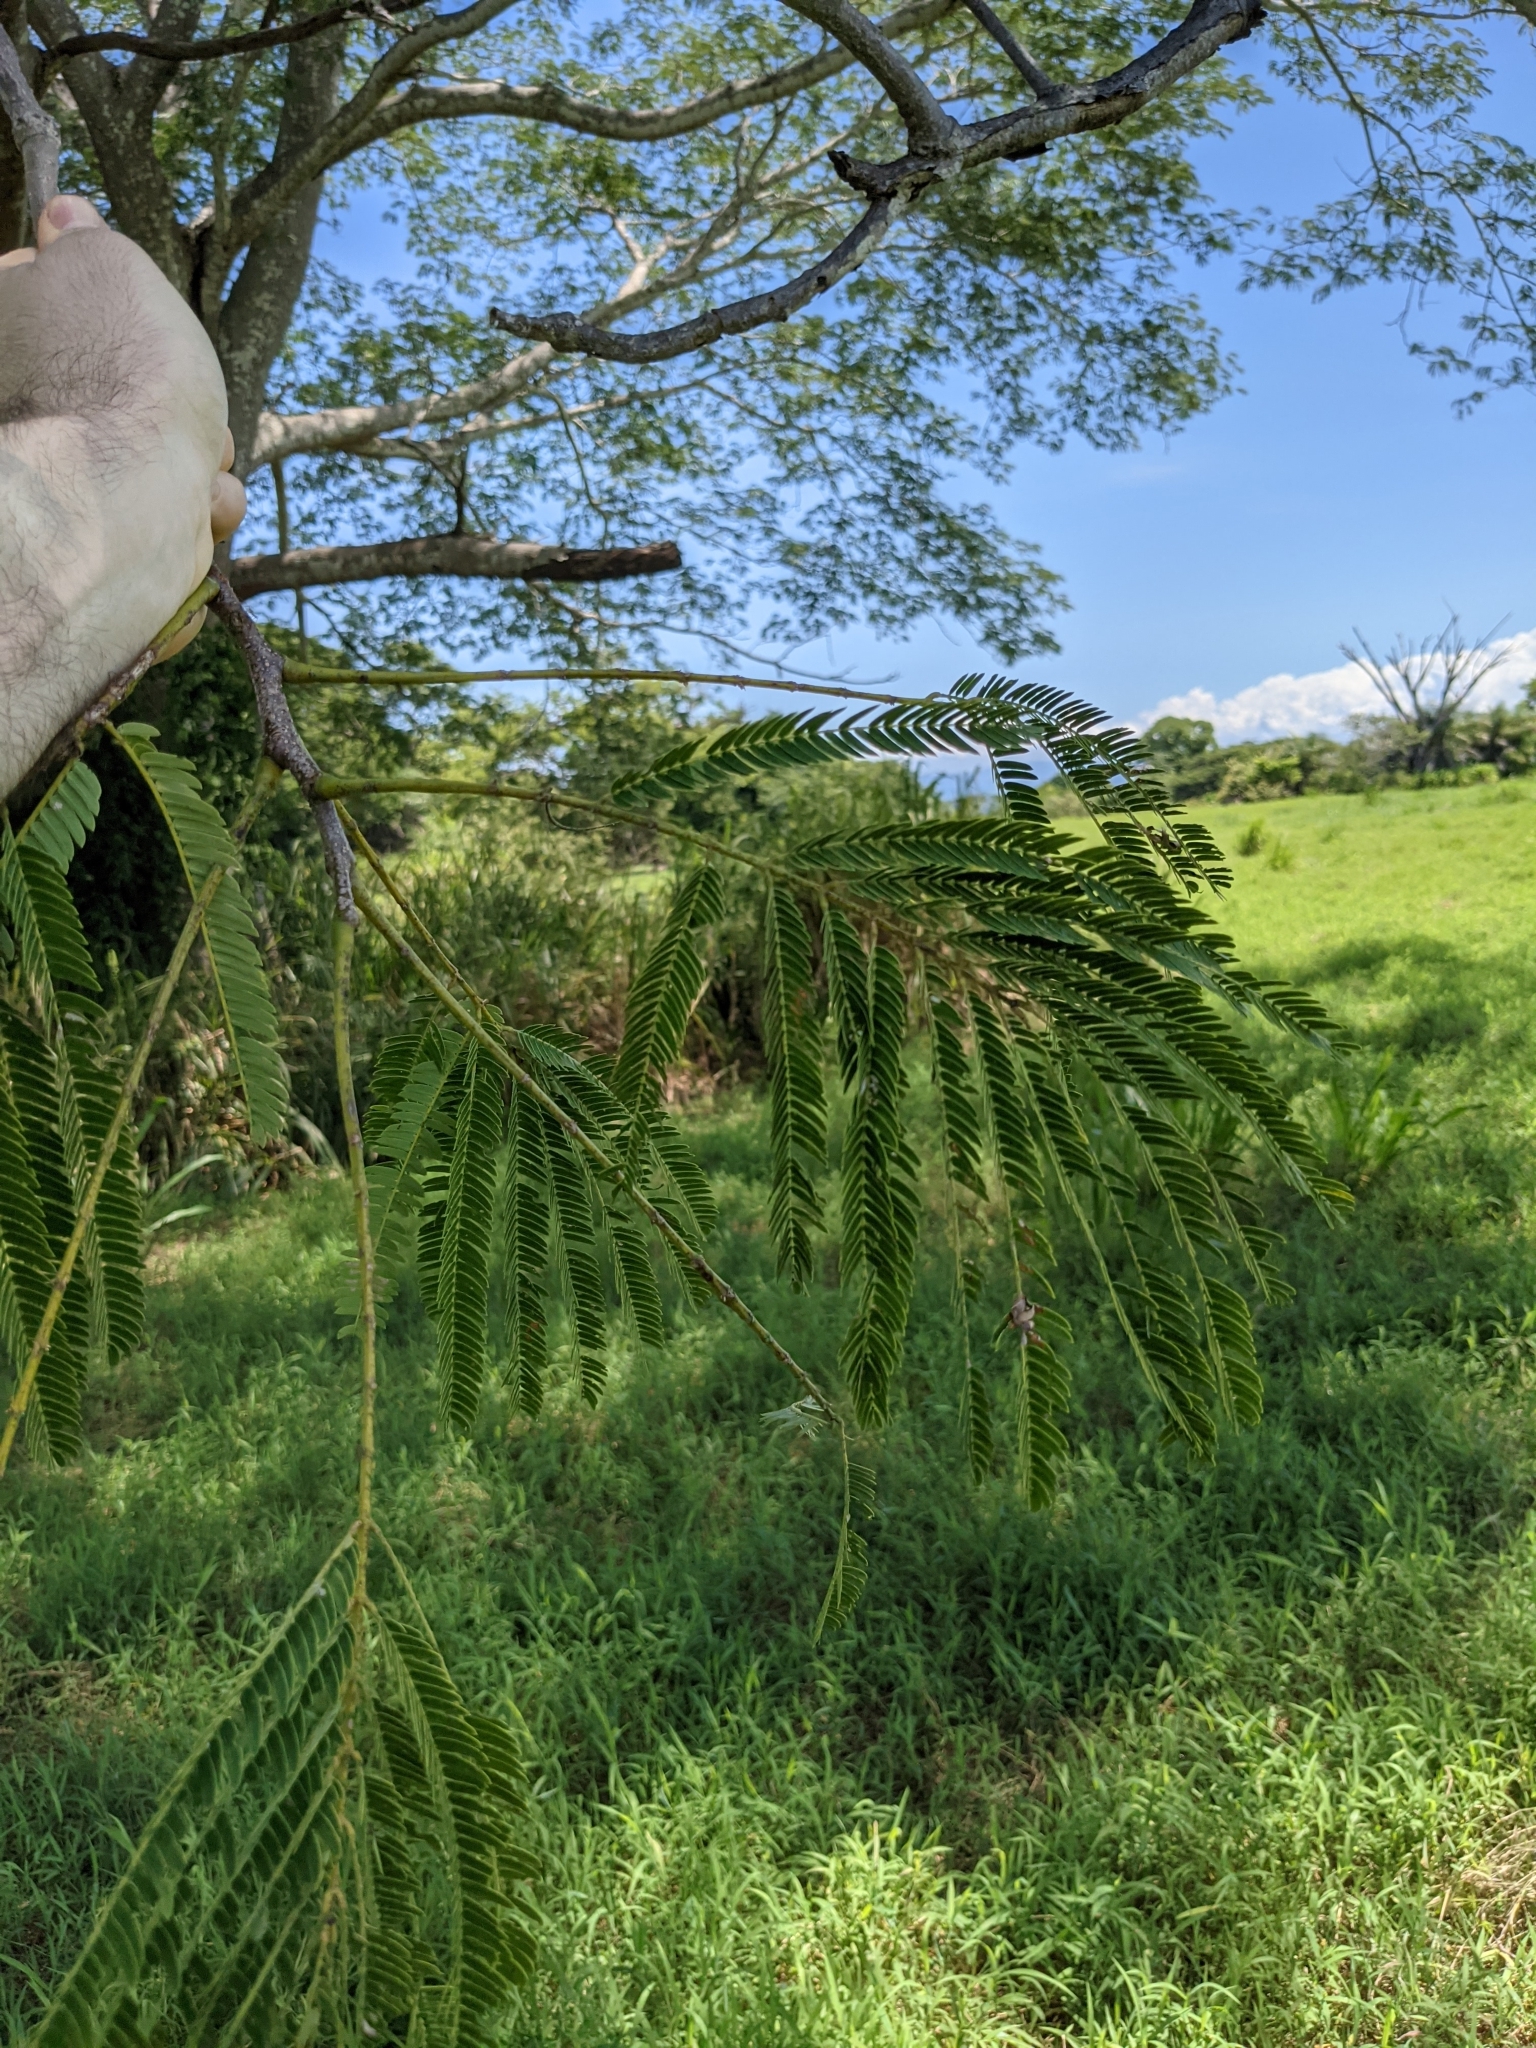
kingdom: Plantae
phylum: Tracheophyta
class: Magnoliopsida
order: Fabales
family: Fabaceae
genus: Enterolobium
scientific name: Enterolobium cyclocarpum
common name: Ear tree
